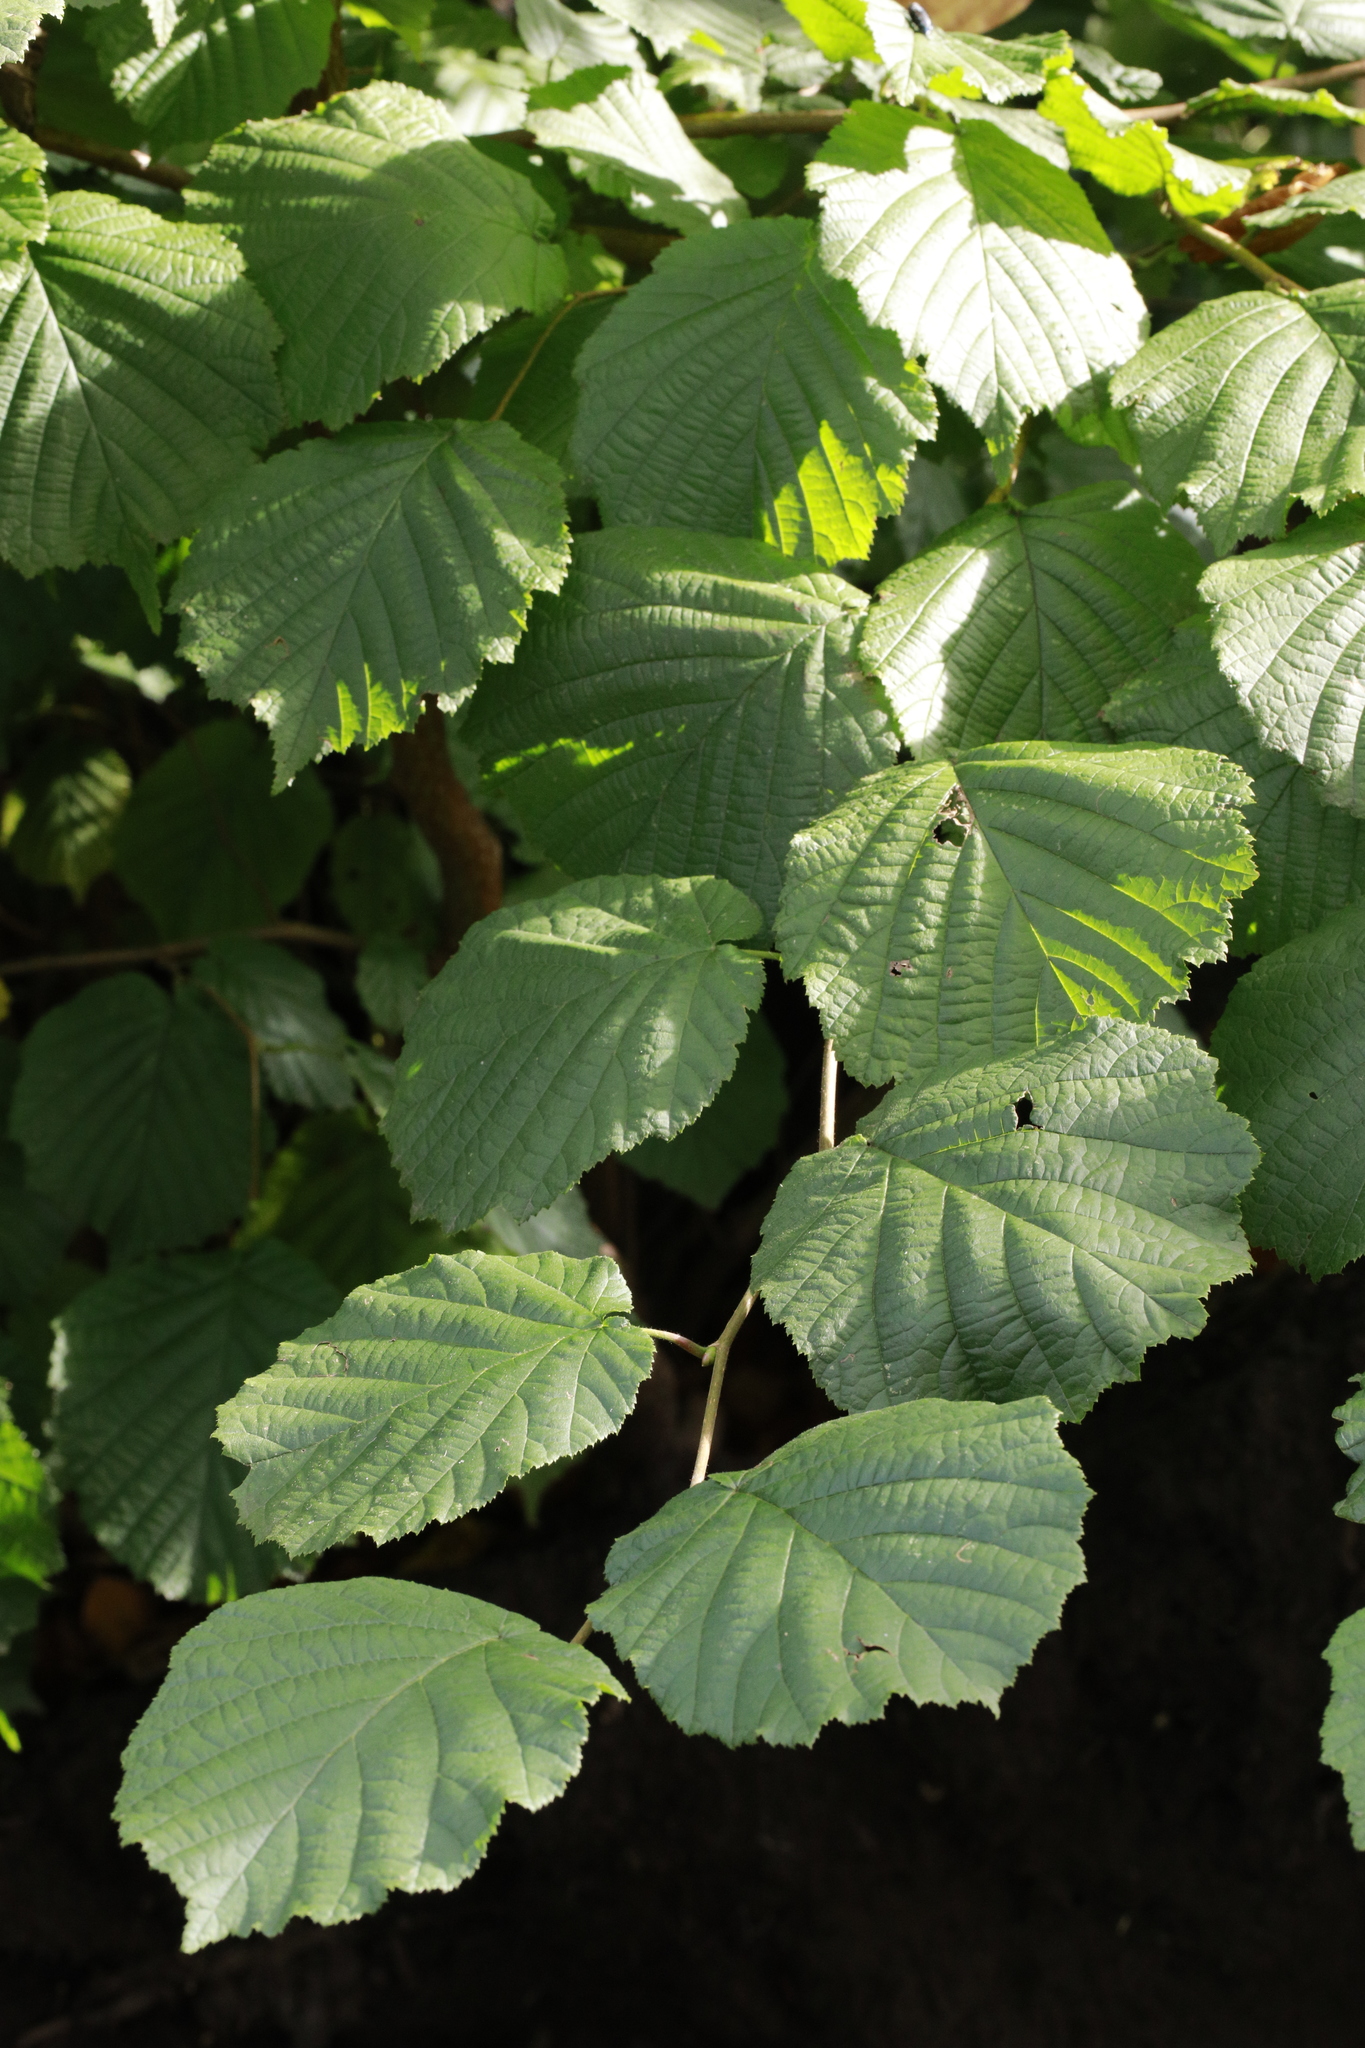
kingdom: Plantae
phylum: Tracheophyta
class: Magnoliopsida
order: Fagales
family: Betulaceae
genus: Corylus
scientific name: Corylus avellana
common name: European hazel
